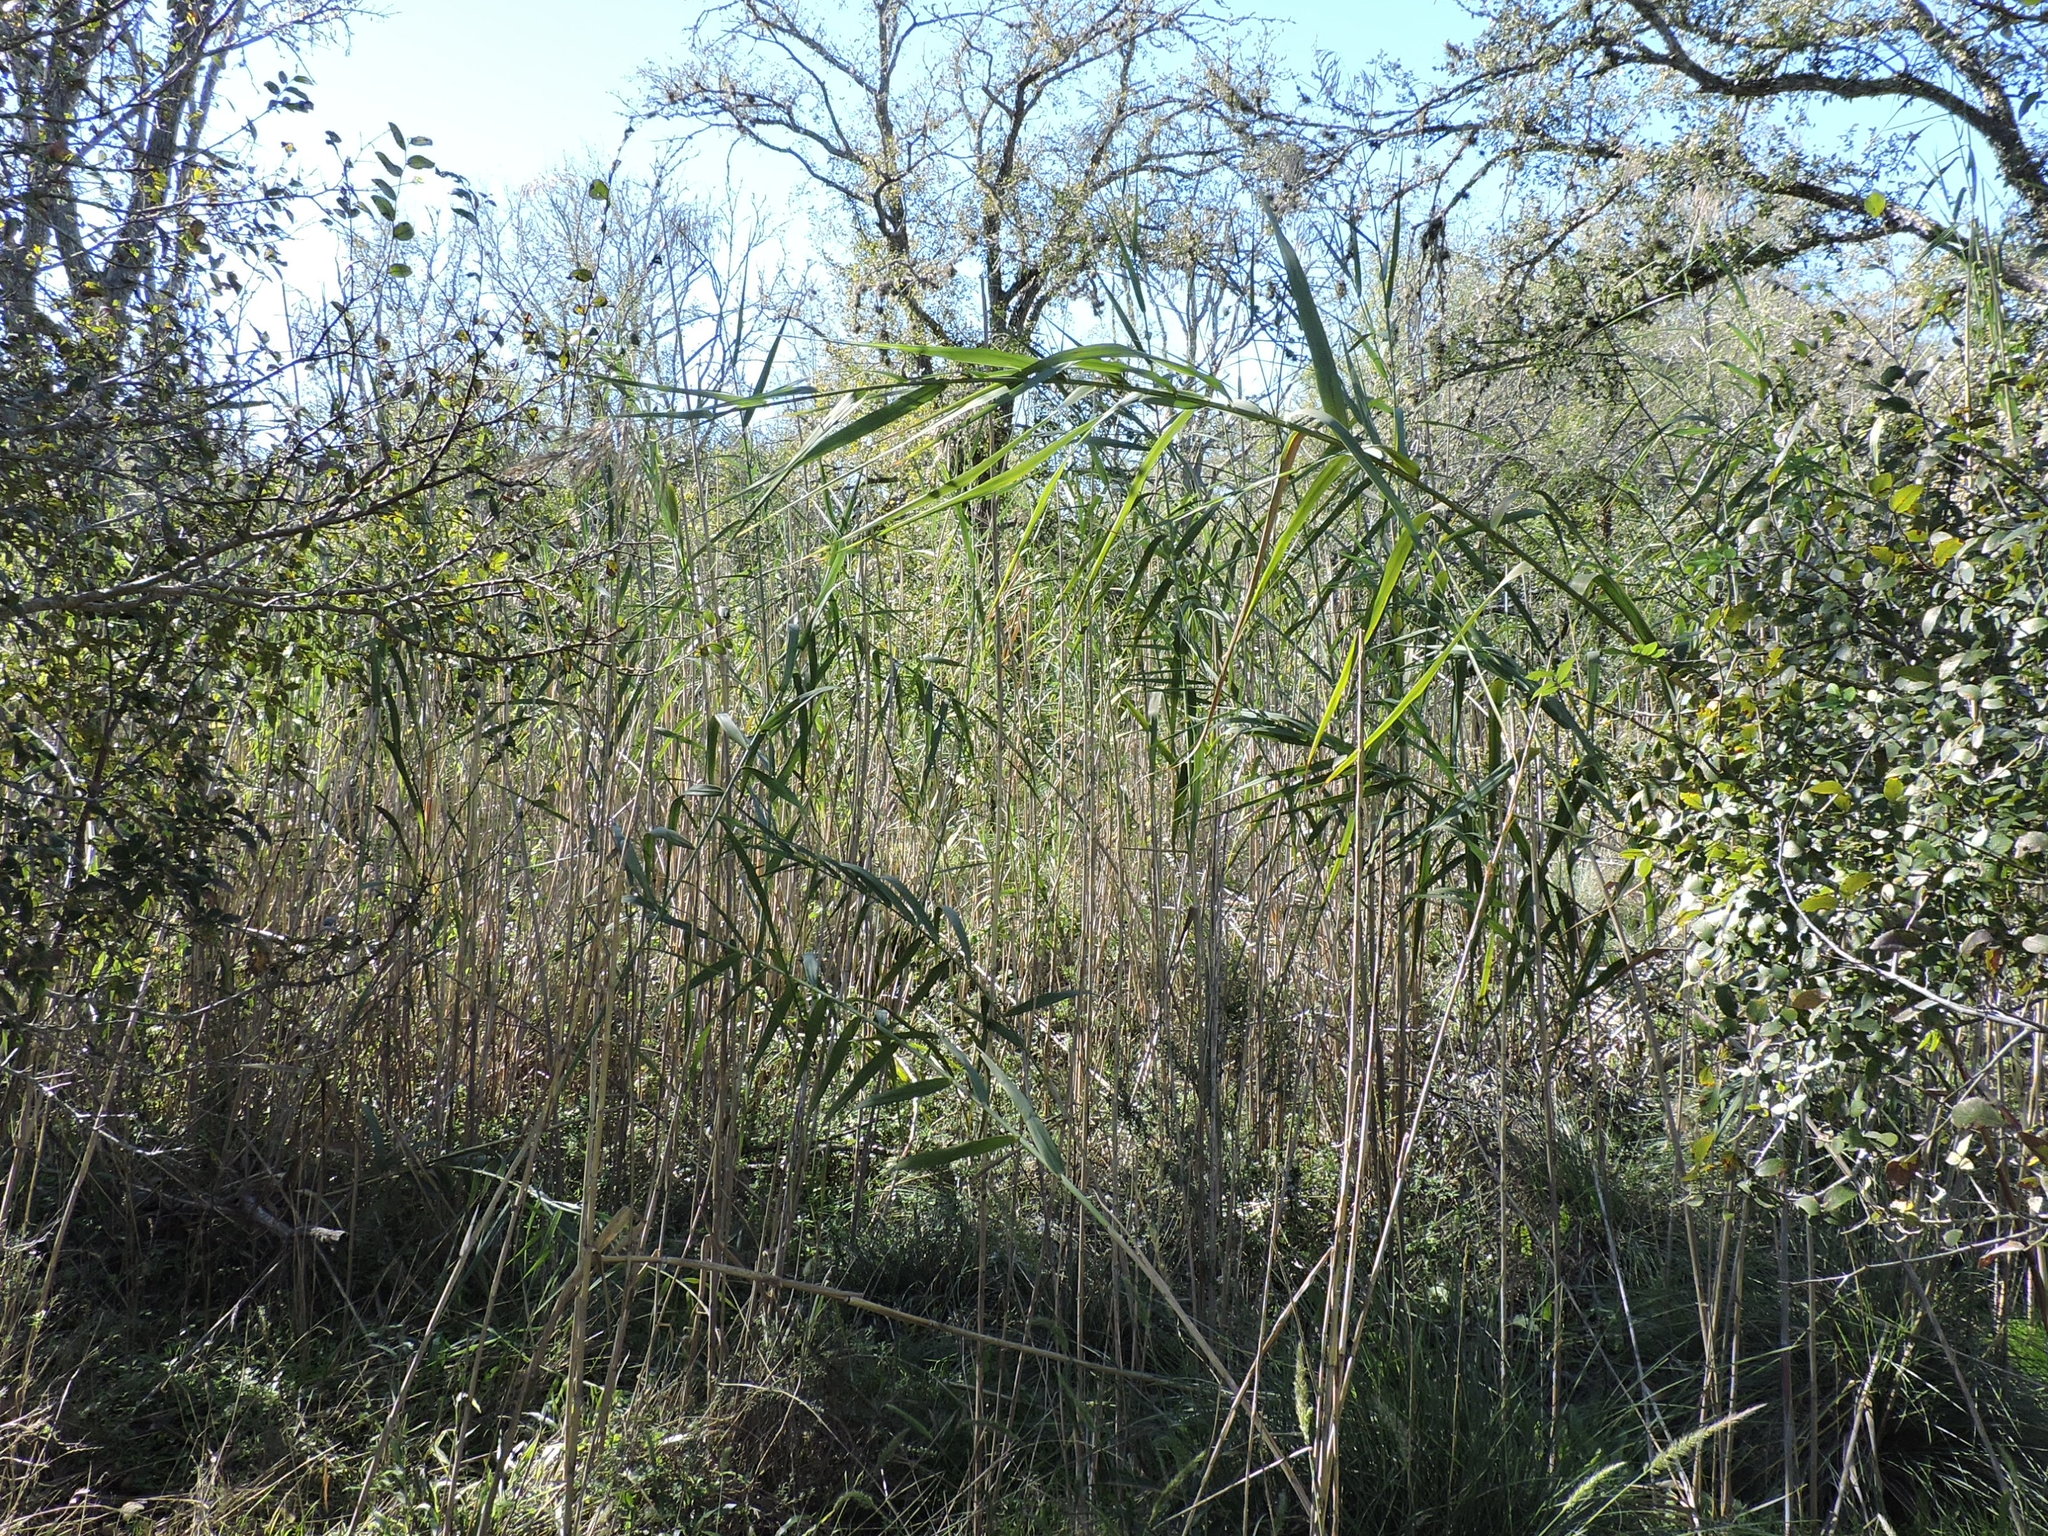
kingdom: Plantae
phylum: Tracheophyta
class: Liliopsida
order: Poales
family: Poaceae
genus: Phragmites
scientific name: Phragmites australis
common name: Common reed
